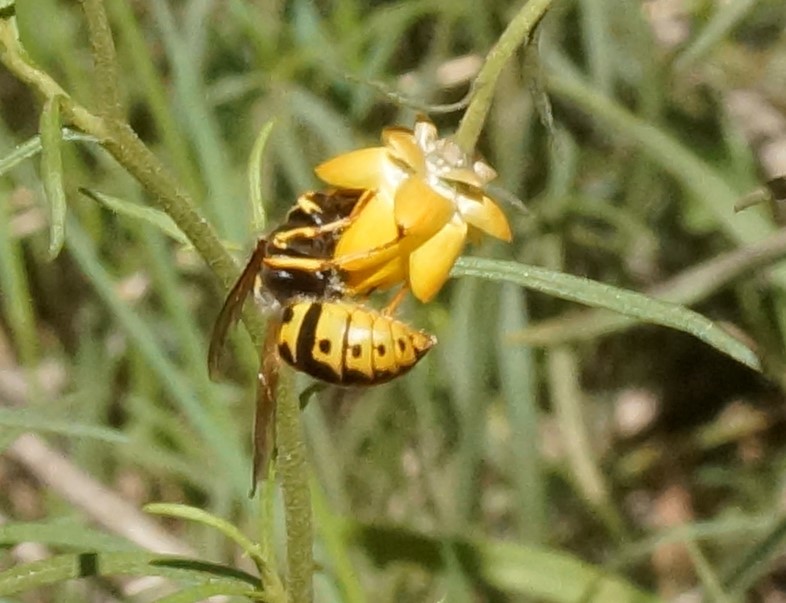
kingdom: Animalia
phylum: Arthropoda
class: Insecta
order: Hymenoptera
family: Vespidae
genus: Vespula
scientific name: Vespula germanica
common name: German wasp
